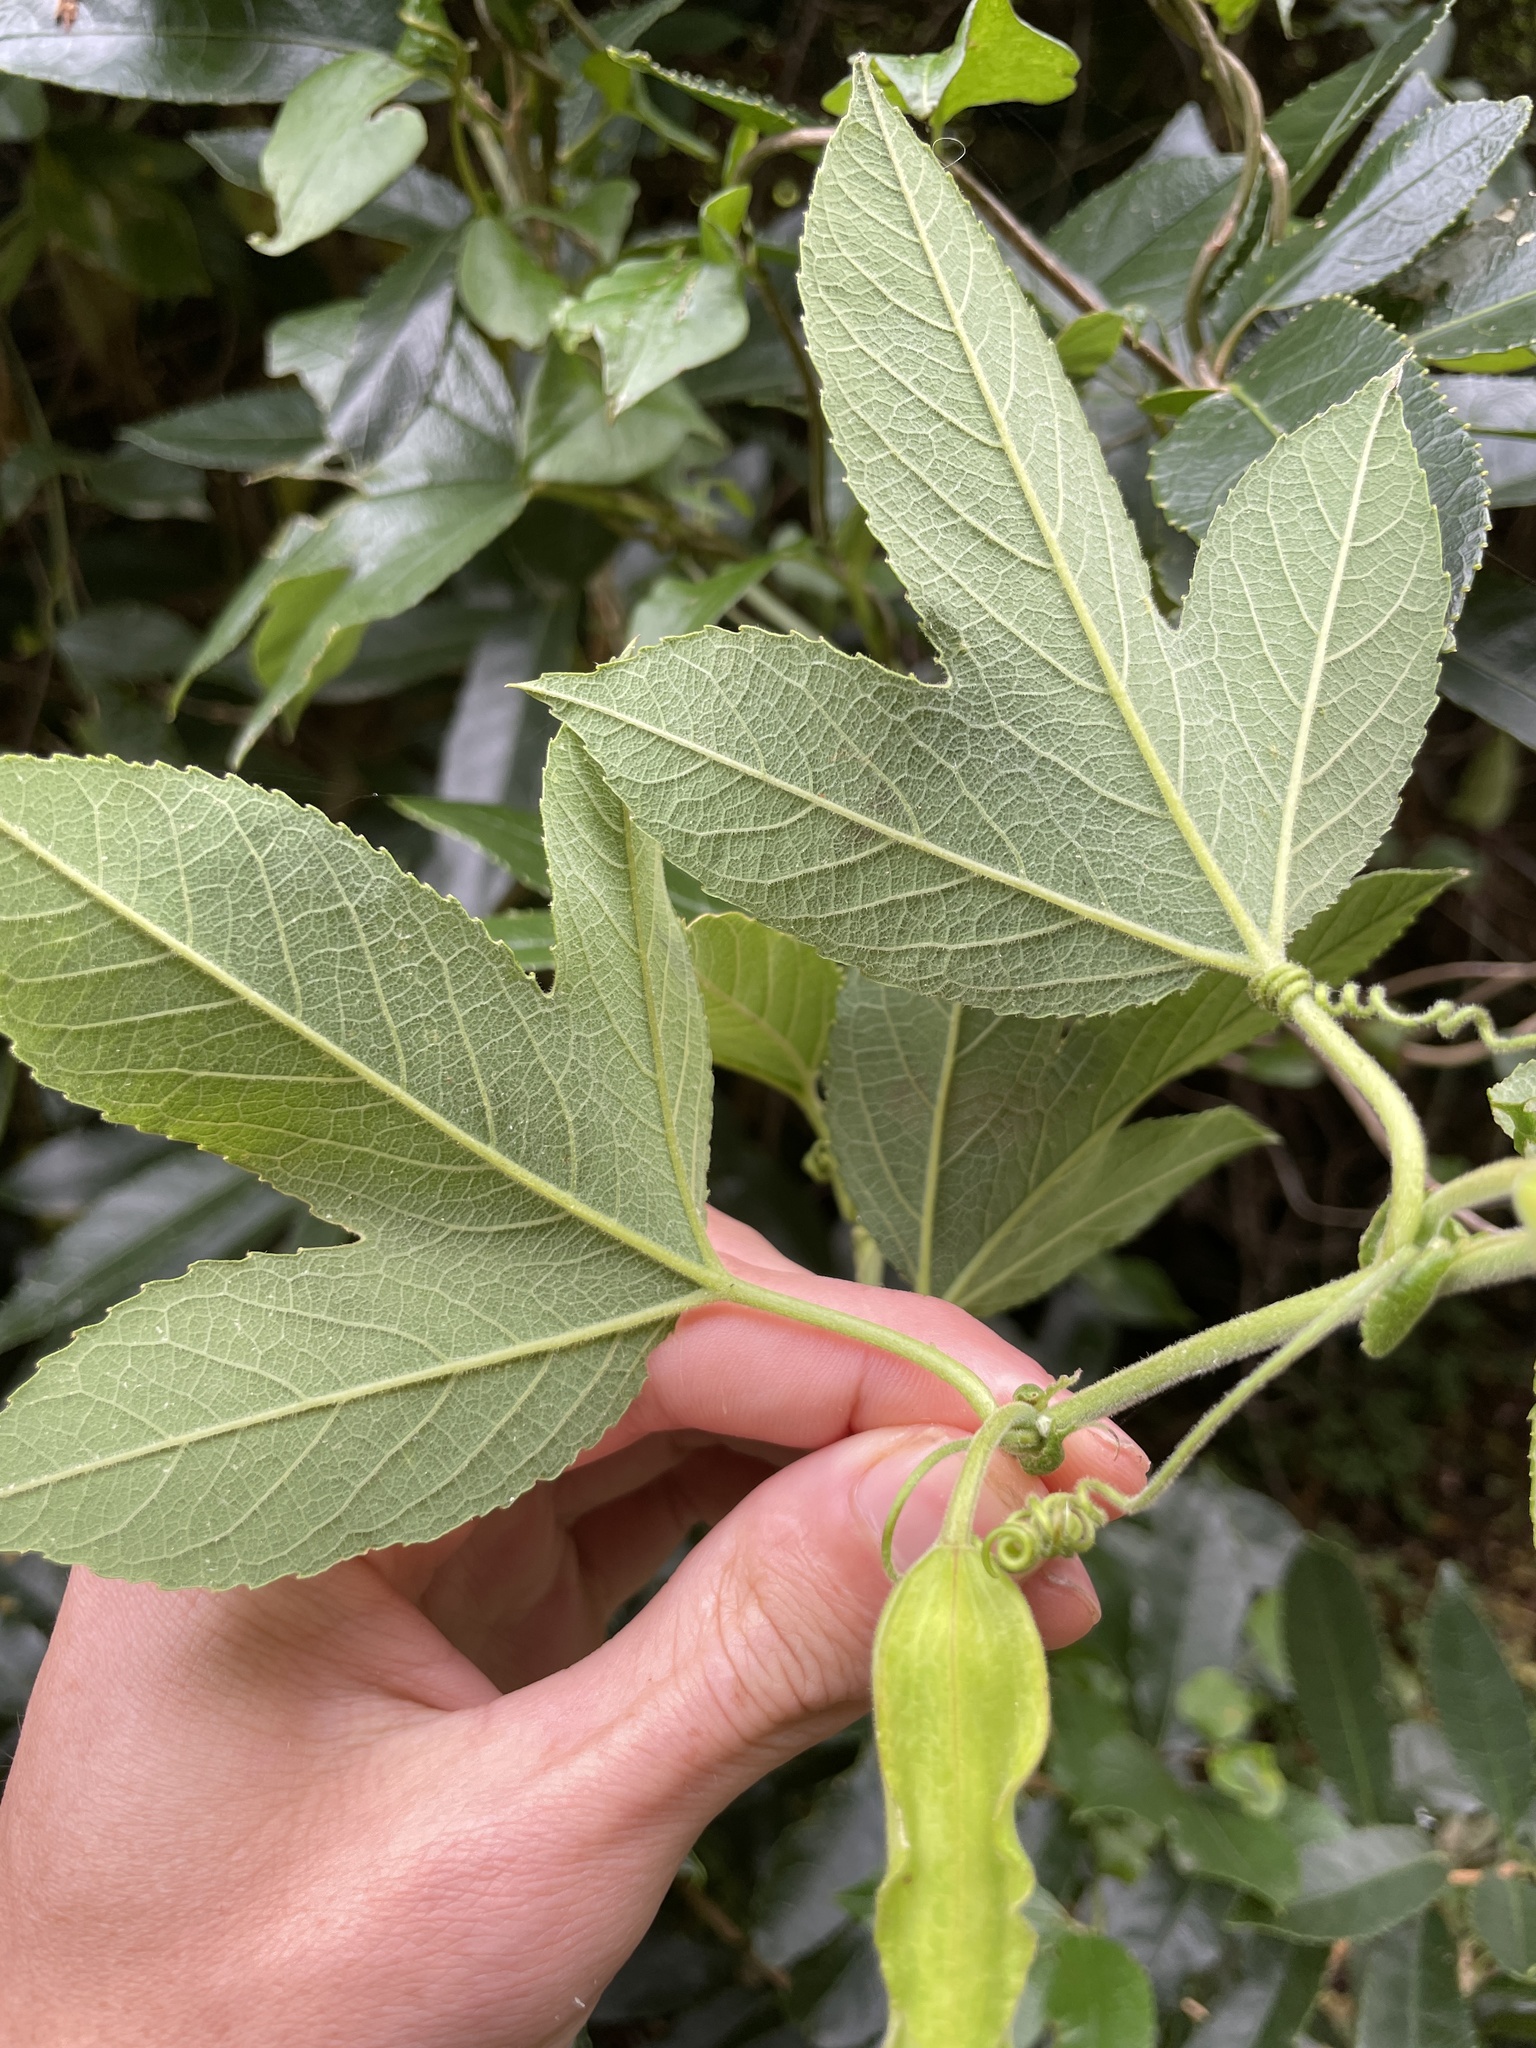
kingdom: Plantae
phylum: Tracheophyta
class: Magnoliopsida
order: Malpighiales
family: Passifloraceae
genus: Passiflora
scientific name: Passiflora tripartita
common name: Banana poka
